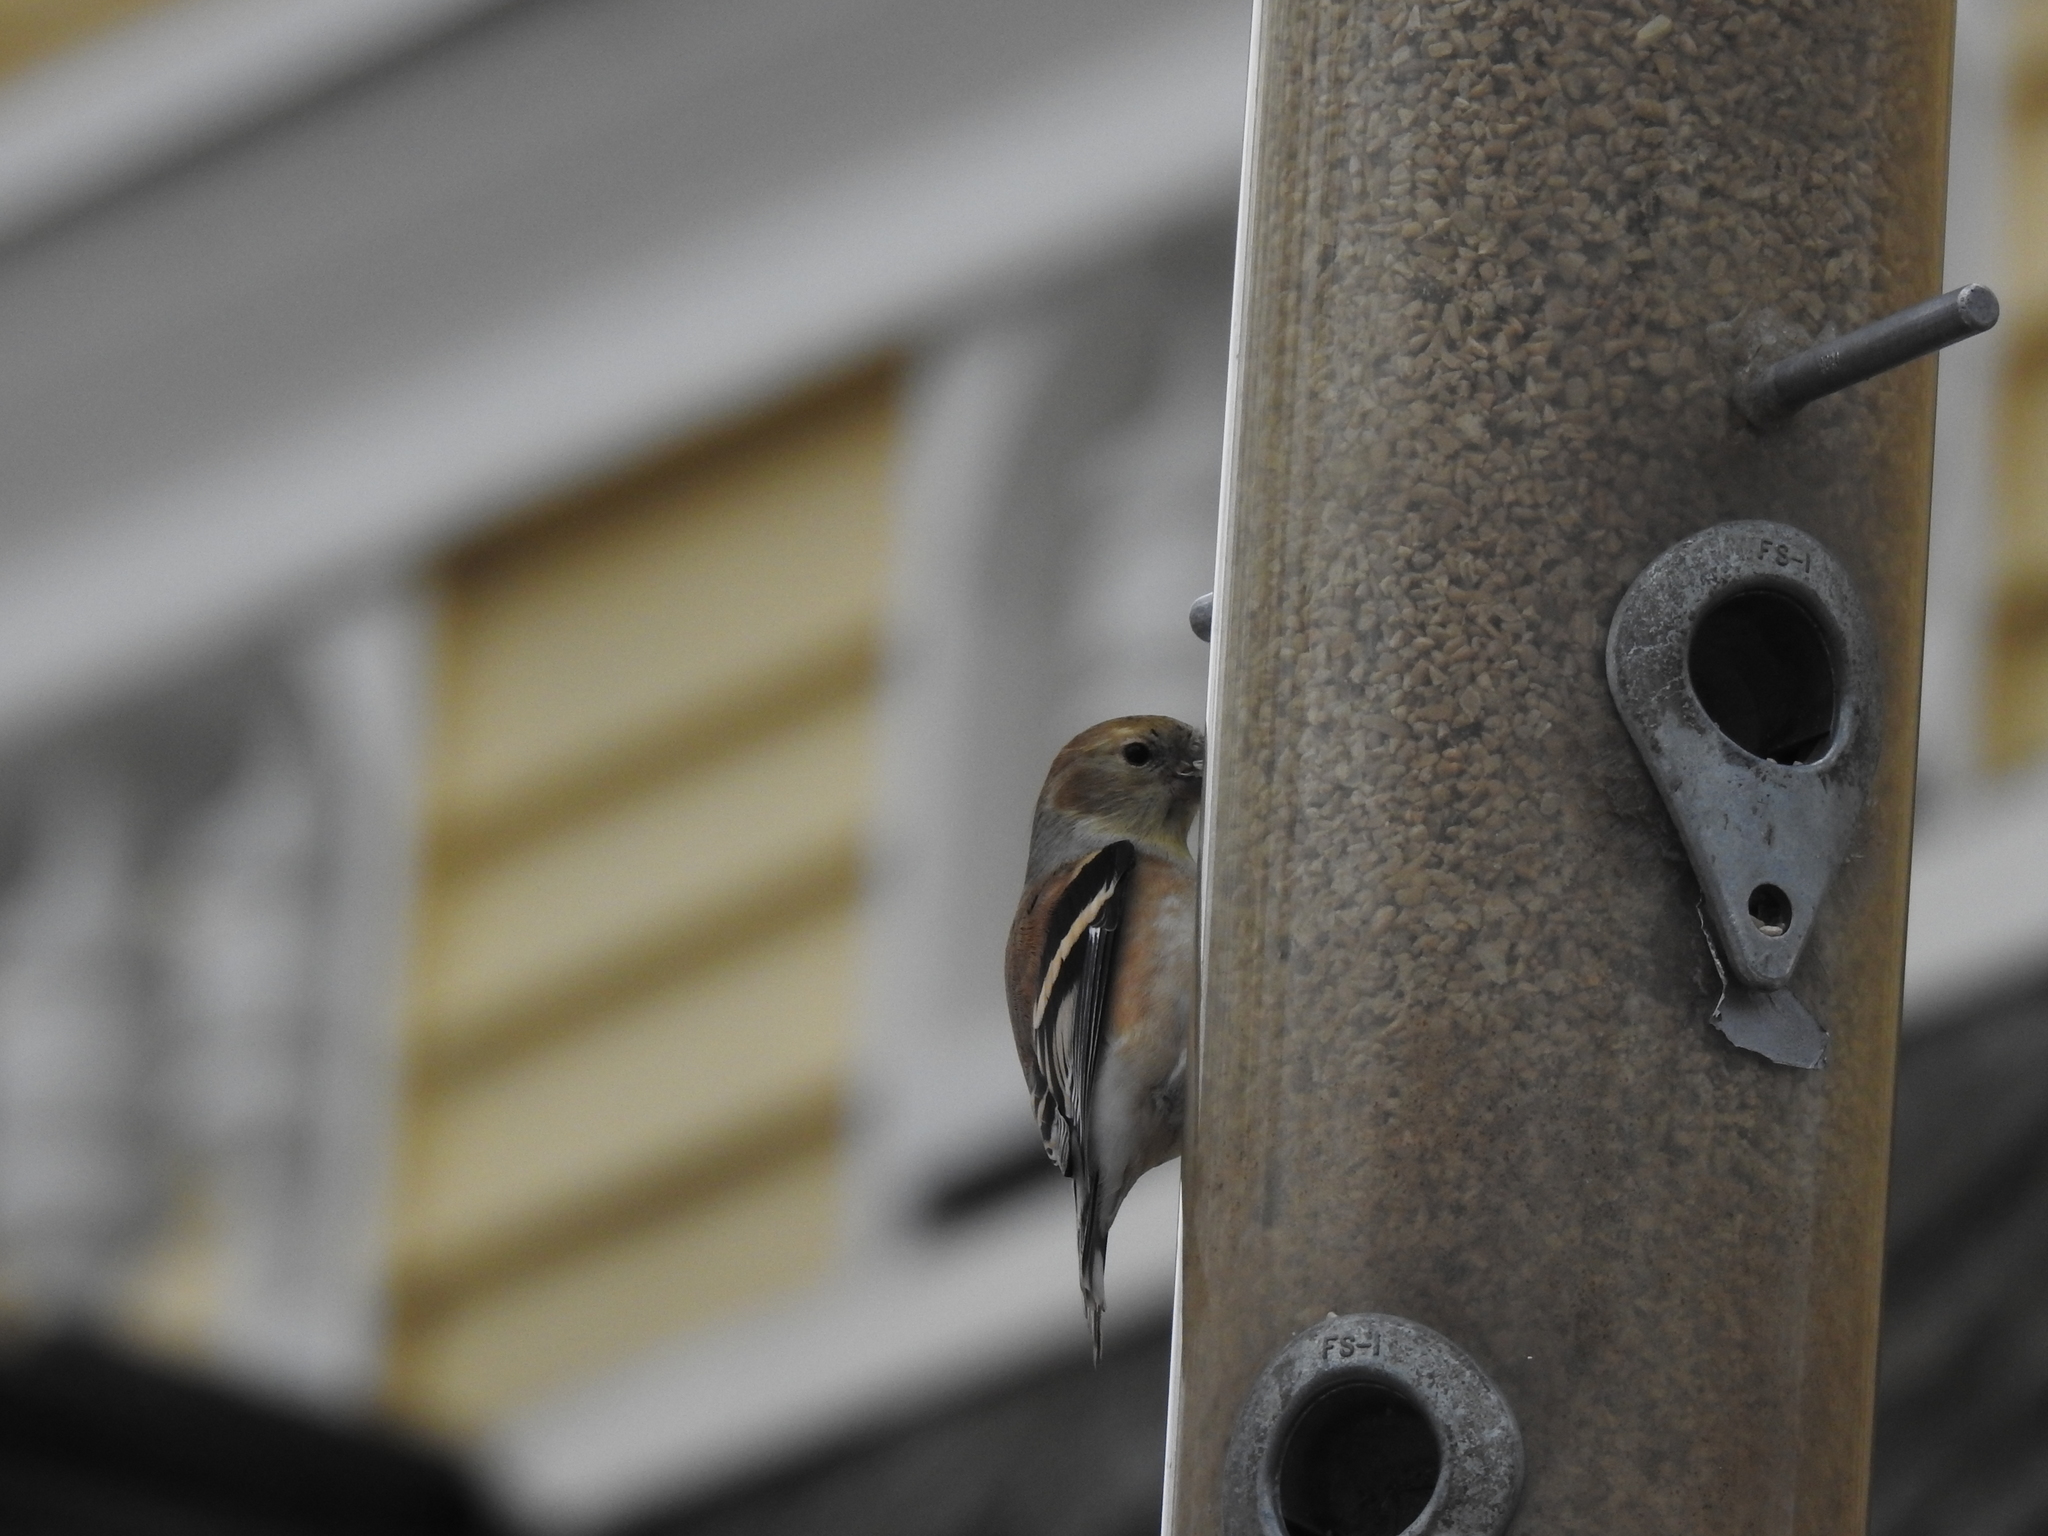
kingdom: Animalia
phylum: Chordata
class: Aves
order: Passeriformes
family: Fringillidae
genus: Spinus
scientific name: Spinus tristis
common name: American goldfinch
